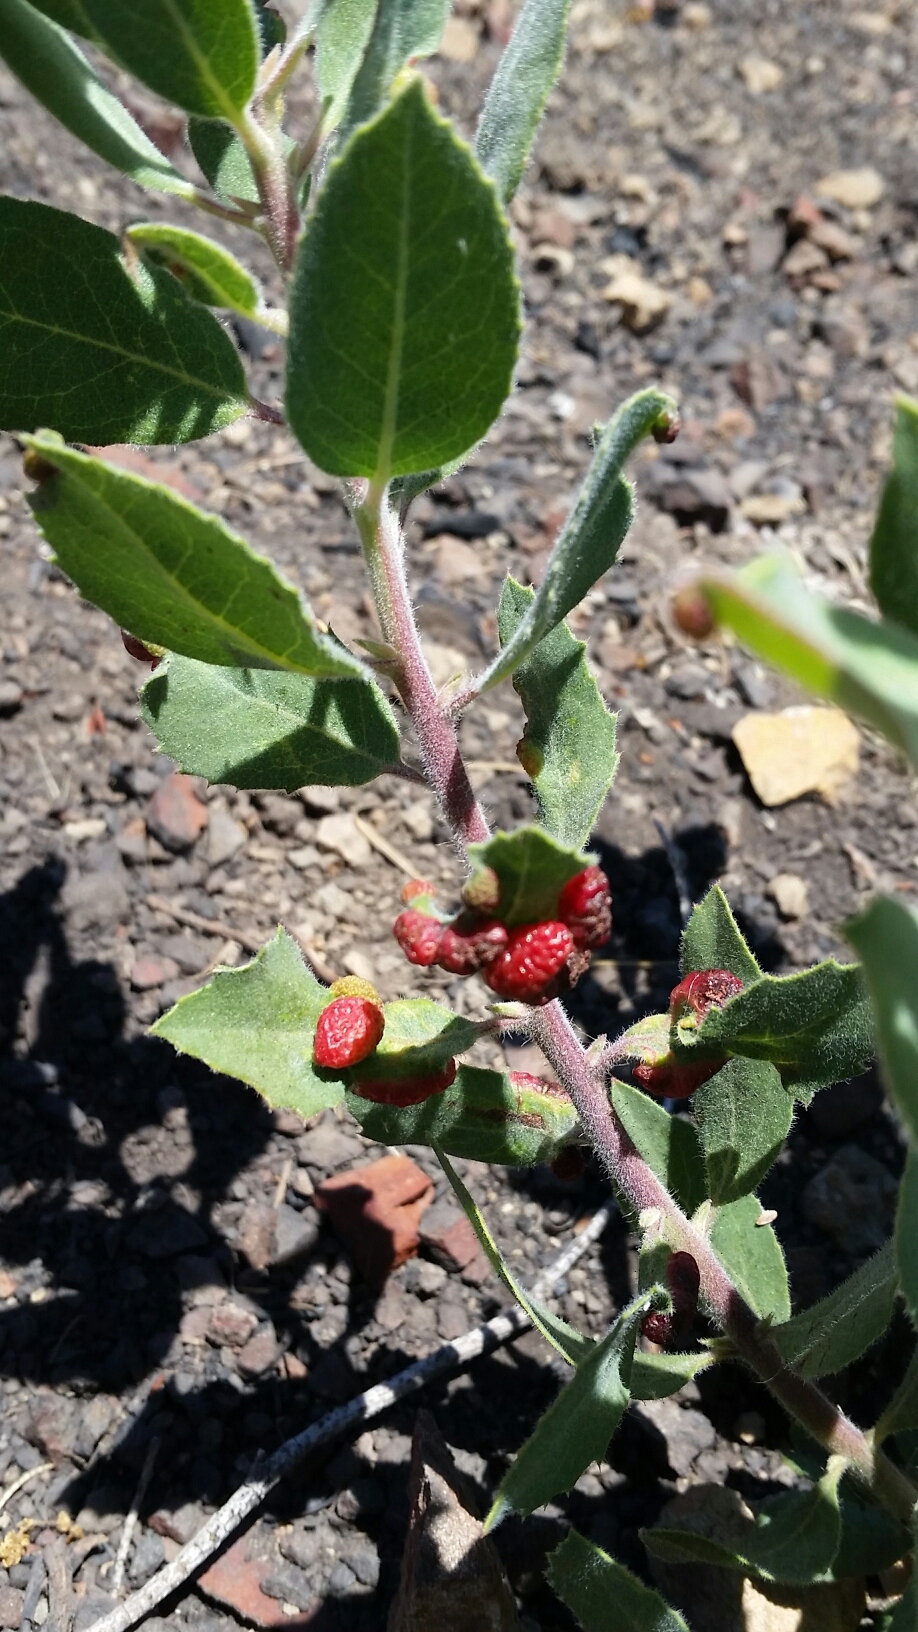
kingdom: Animalia
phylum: Arthropoda
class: Insecta
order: Hemiptera
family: Aphididae
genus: Tamalia
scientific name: Tamalia coweni
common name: Manzanita leafgall aphid
